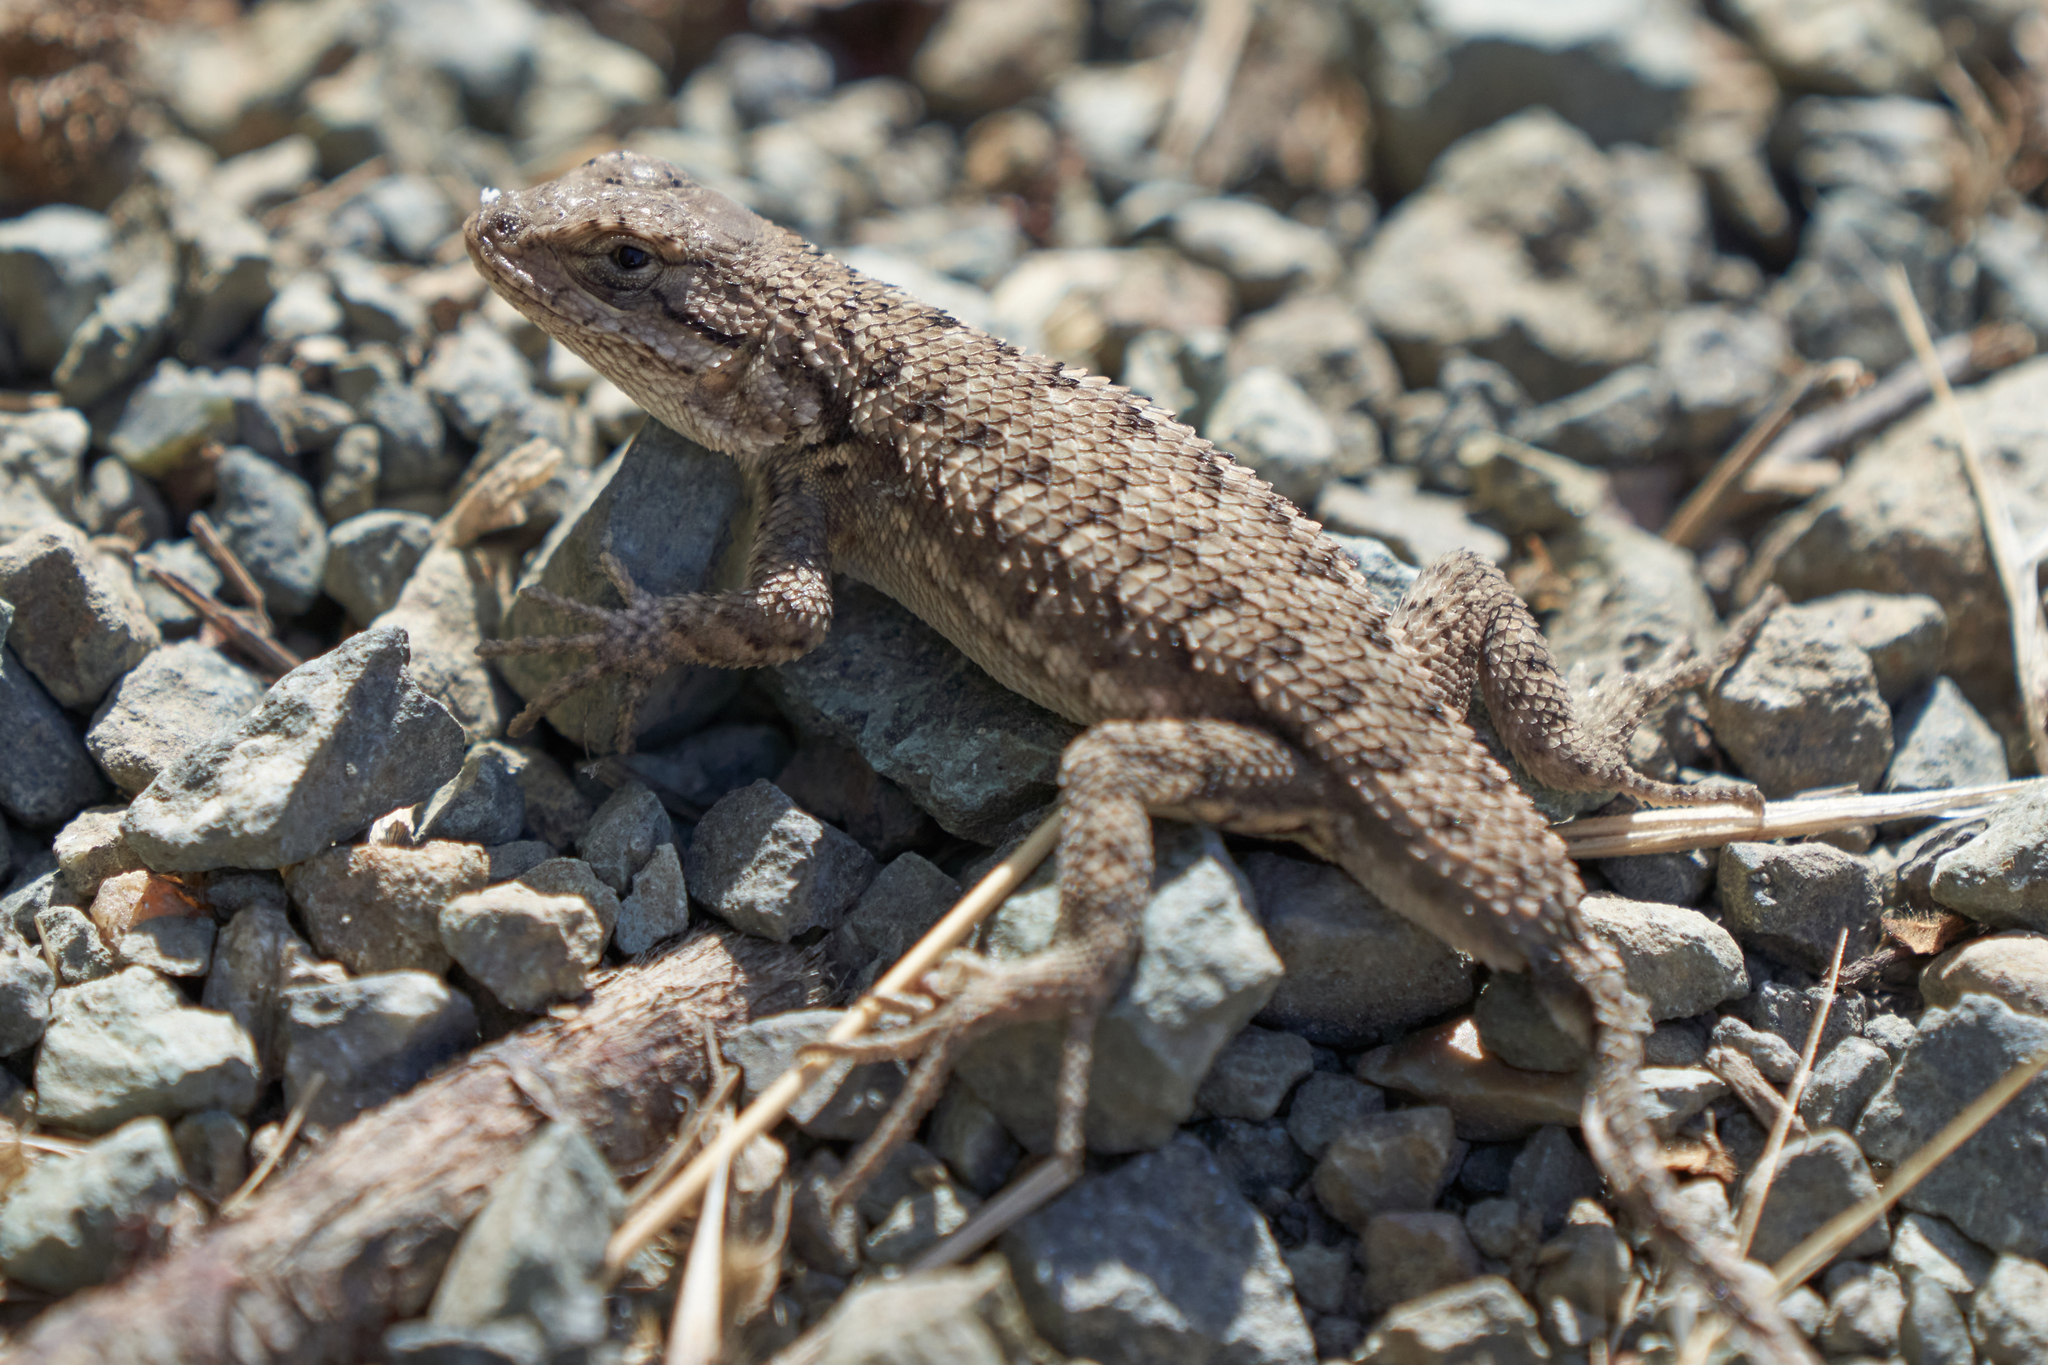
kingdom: Animalia
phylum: Chordata
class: Squamata
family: Phrynosomatidae
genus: Sceloporus
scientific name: Sceloporus occidentalis
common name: Western fence lizard
